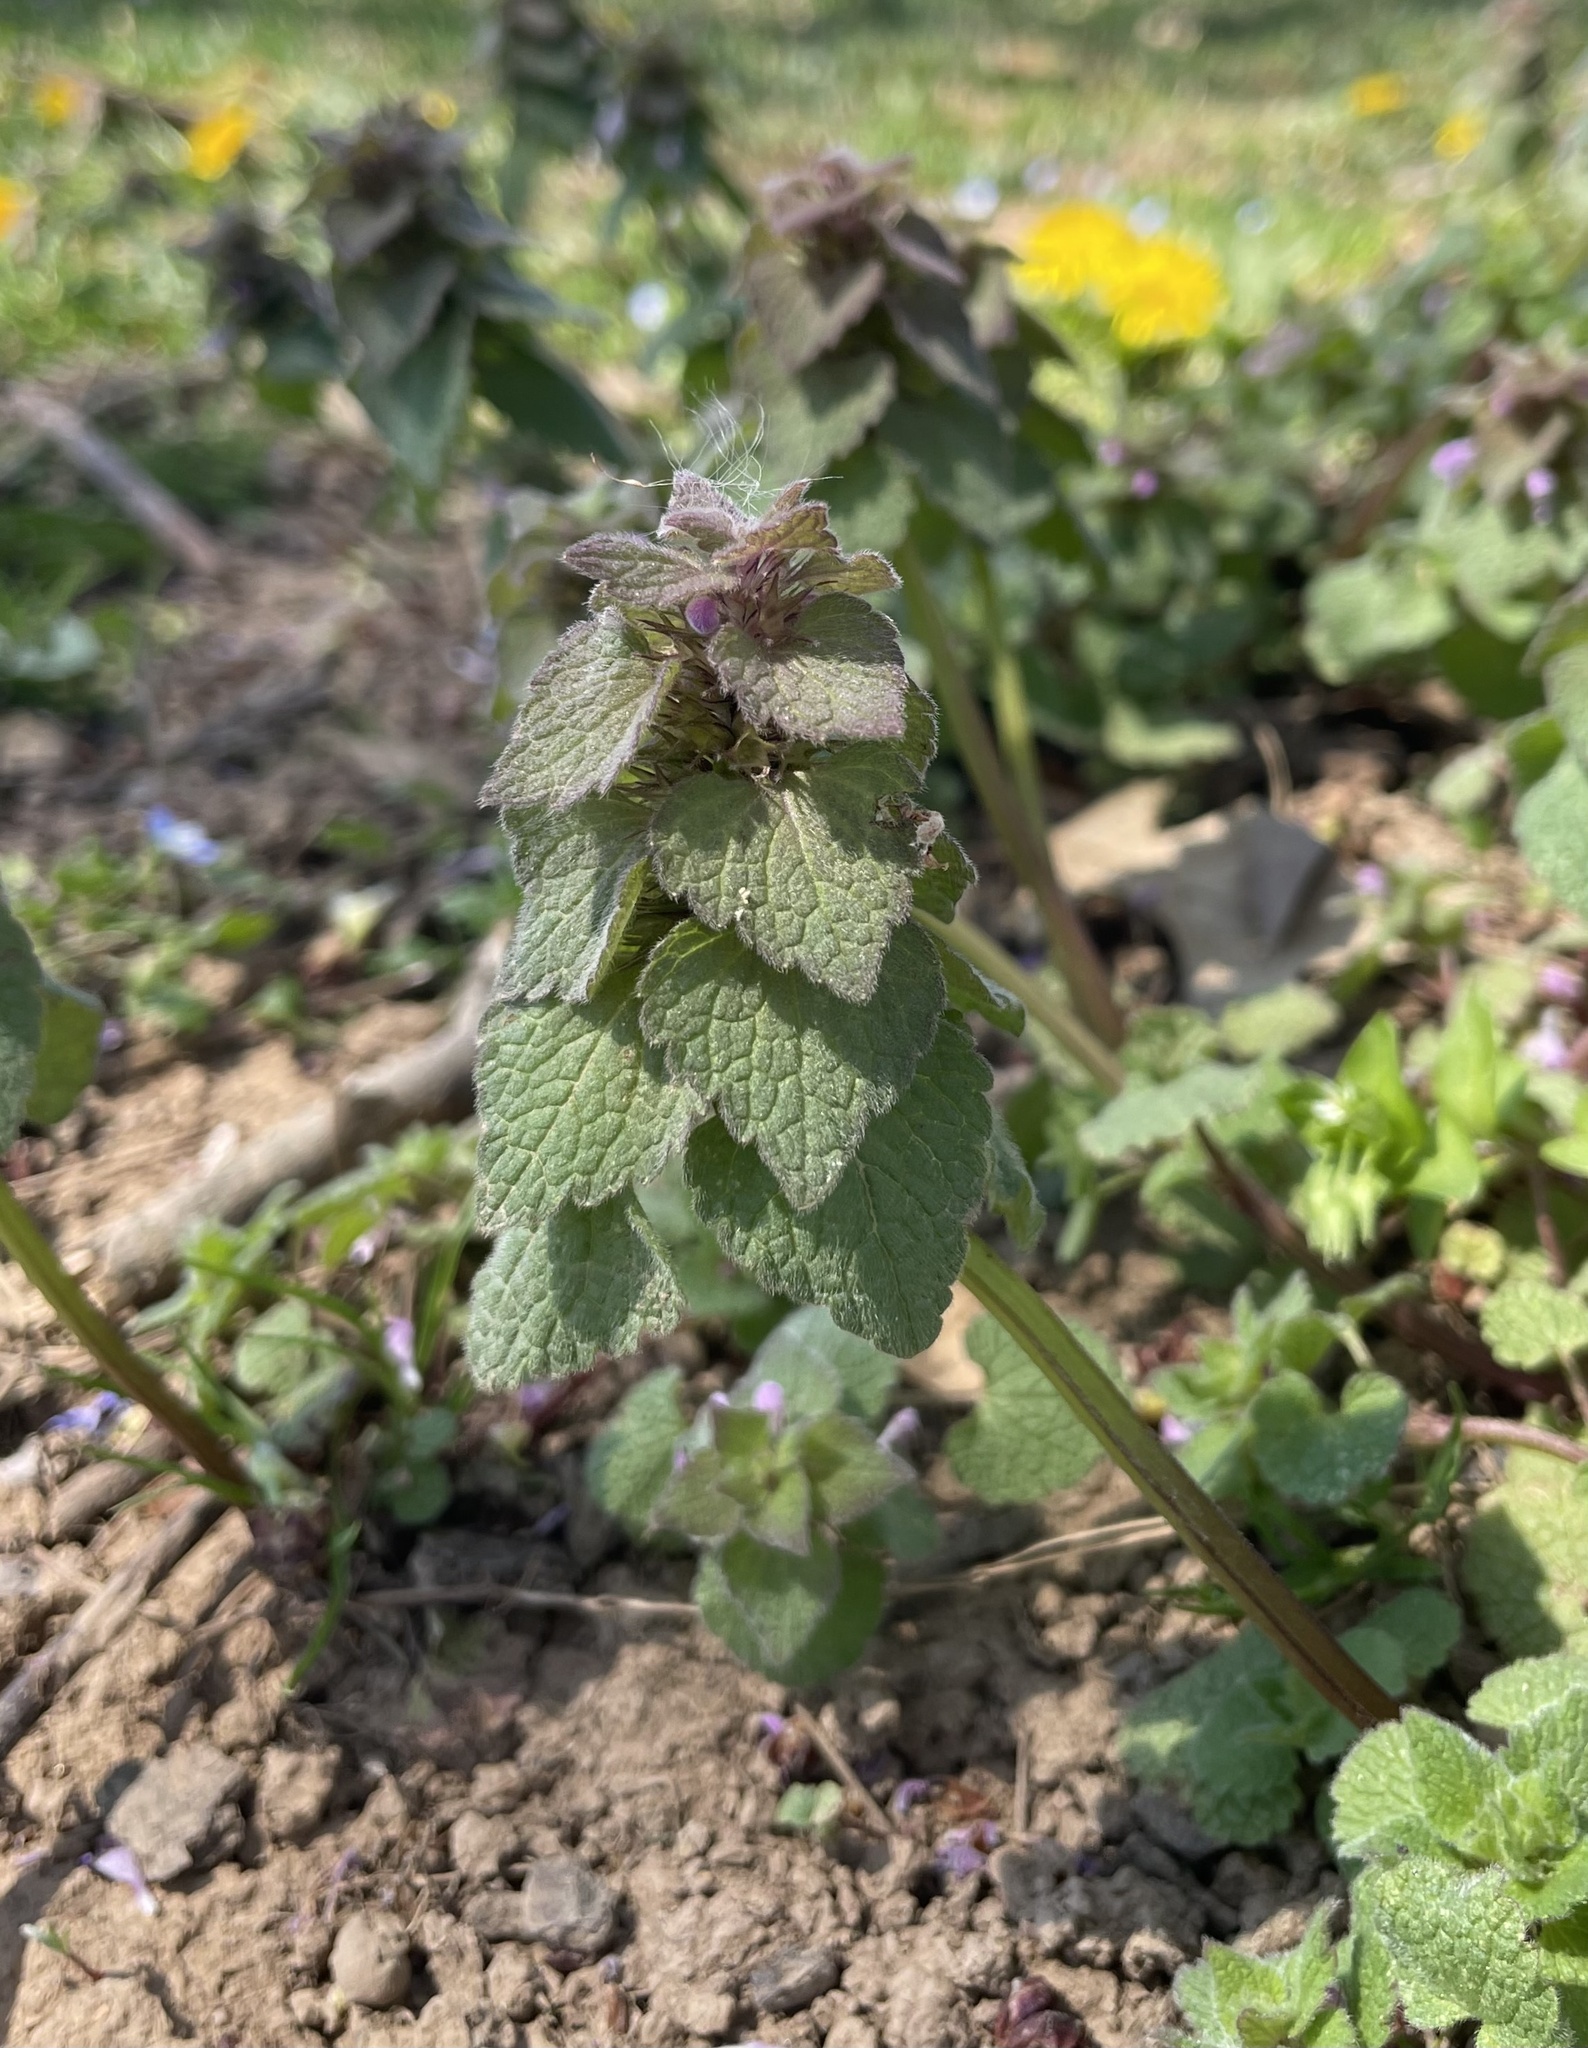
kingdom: Plantae
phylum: Tracheophyta
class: Magnoliopsida
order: Lamiales
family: Lamiaceae
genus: Lamium
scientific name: Lamium purpureum
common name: Red dead-nettle
